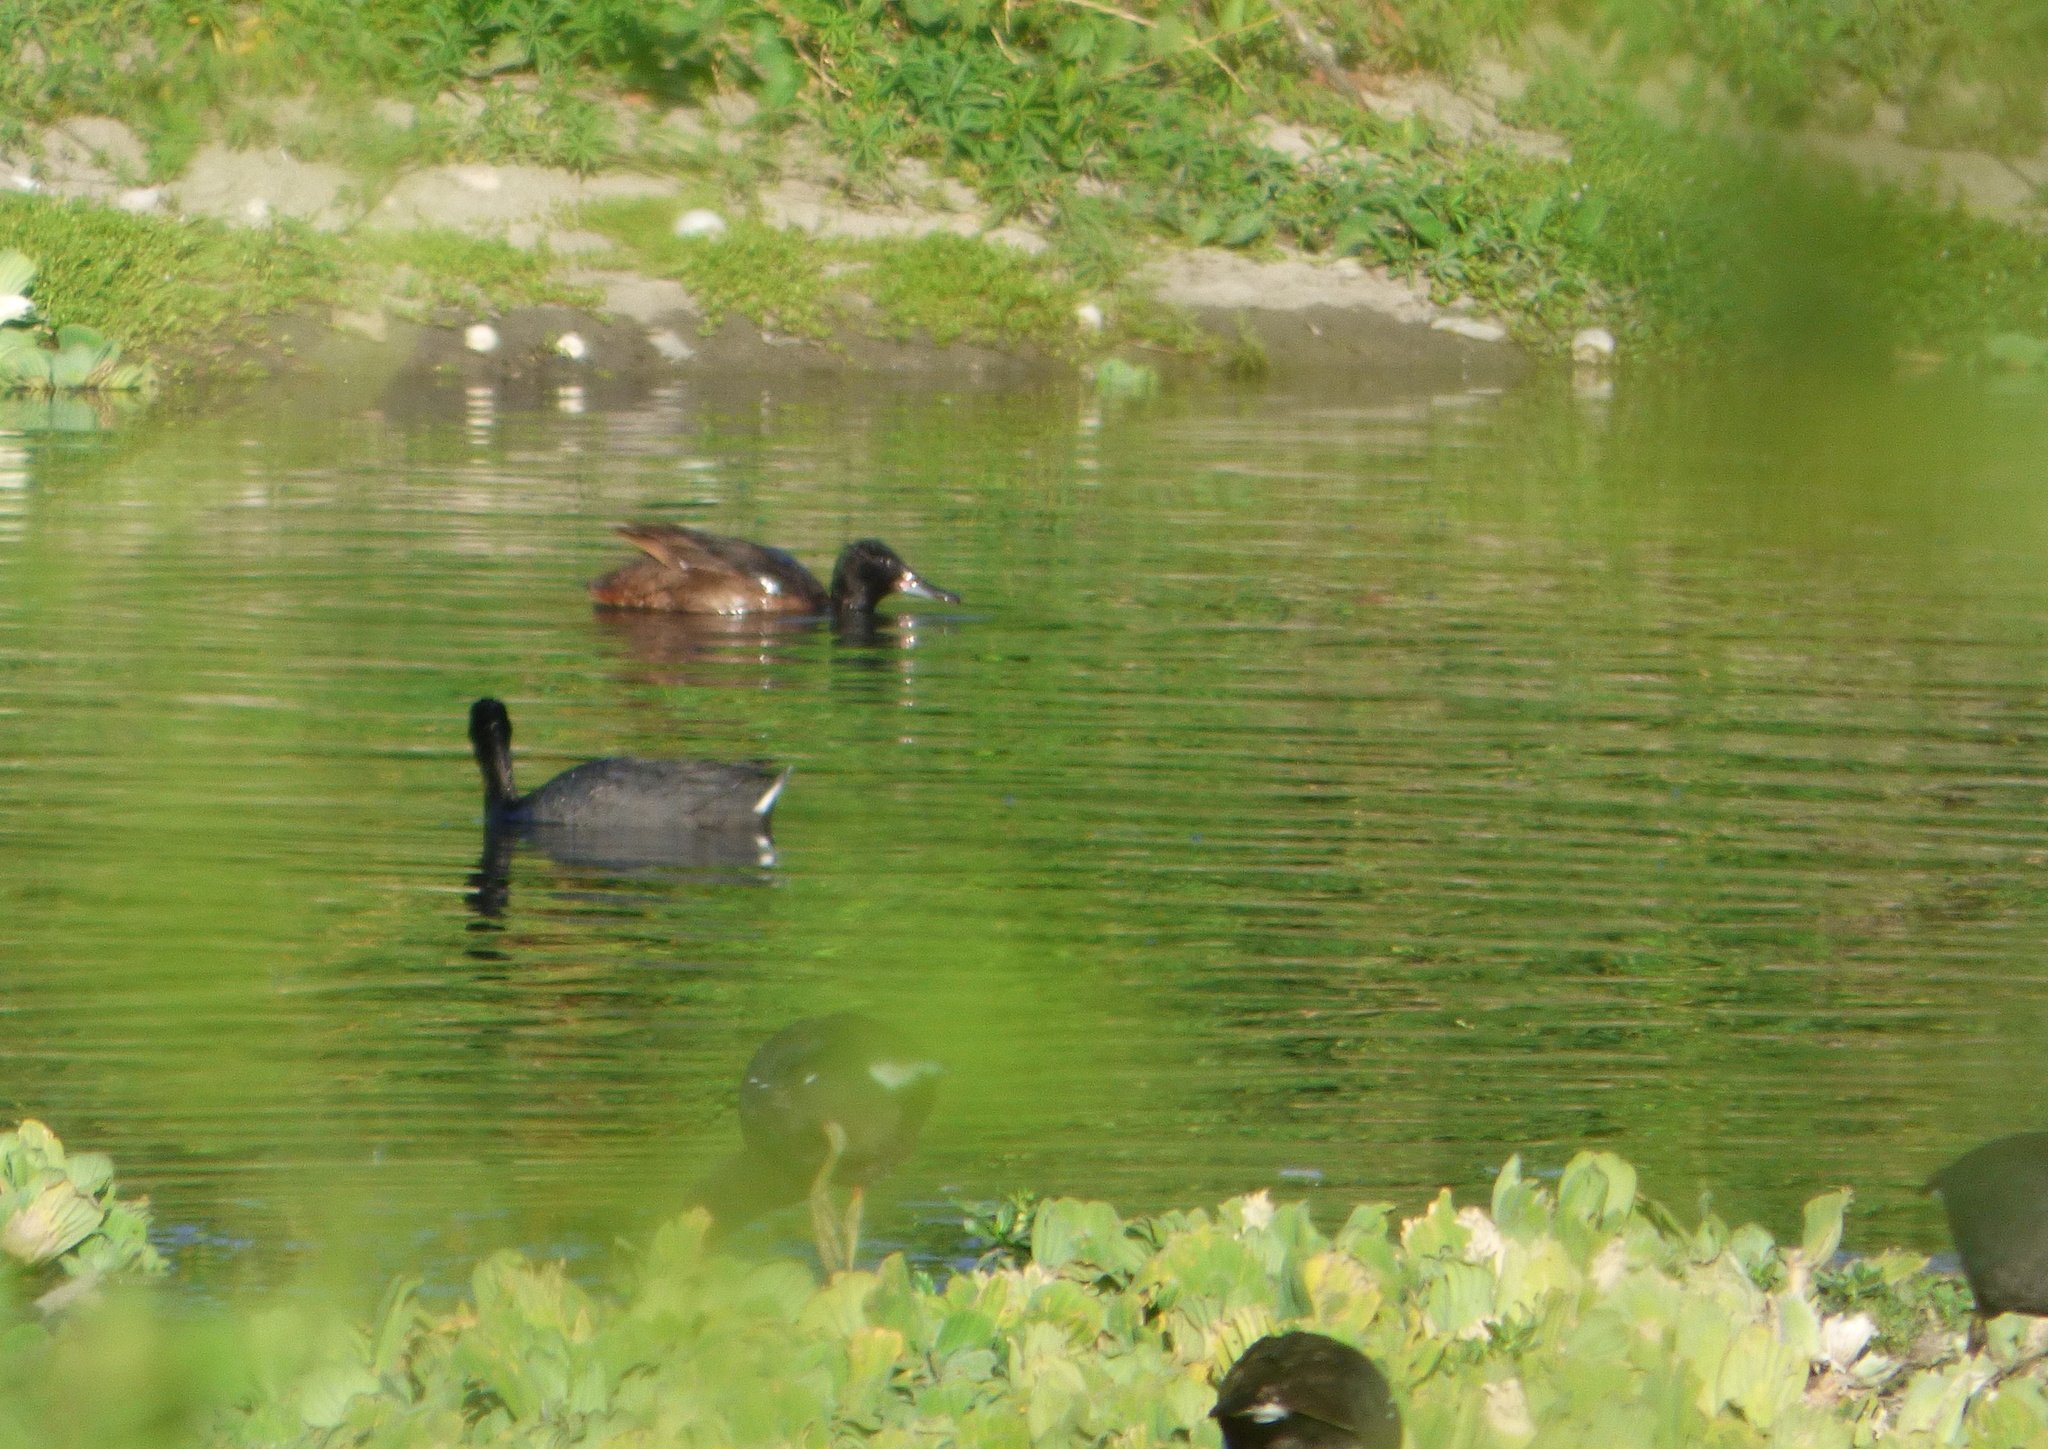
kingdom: Animalia
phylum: Chordata
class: Aves
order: Anseriformes
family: Anatidae
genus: Heteronetta
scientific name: Heteronetta atricapilla
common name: Black-headed duck
